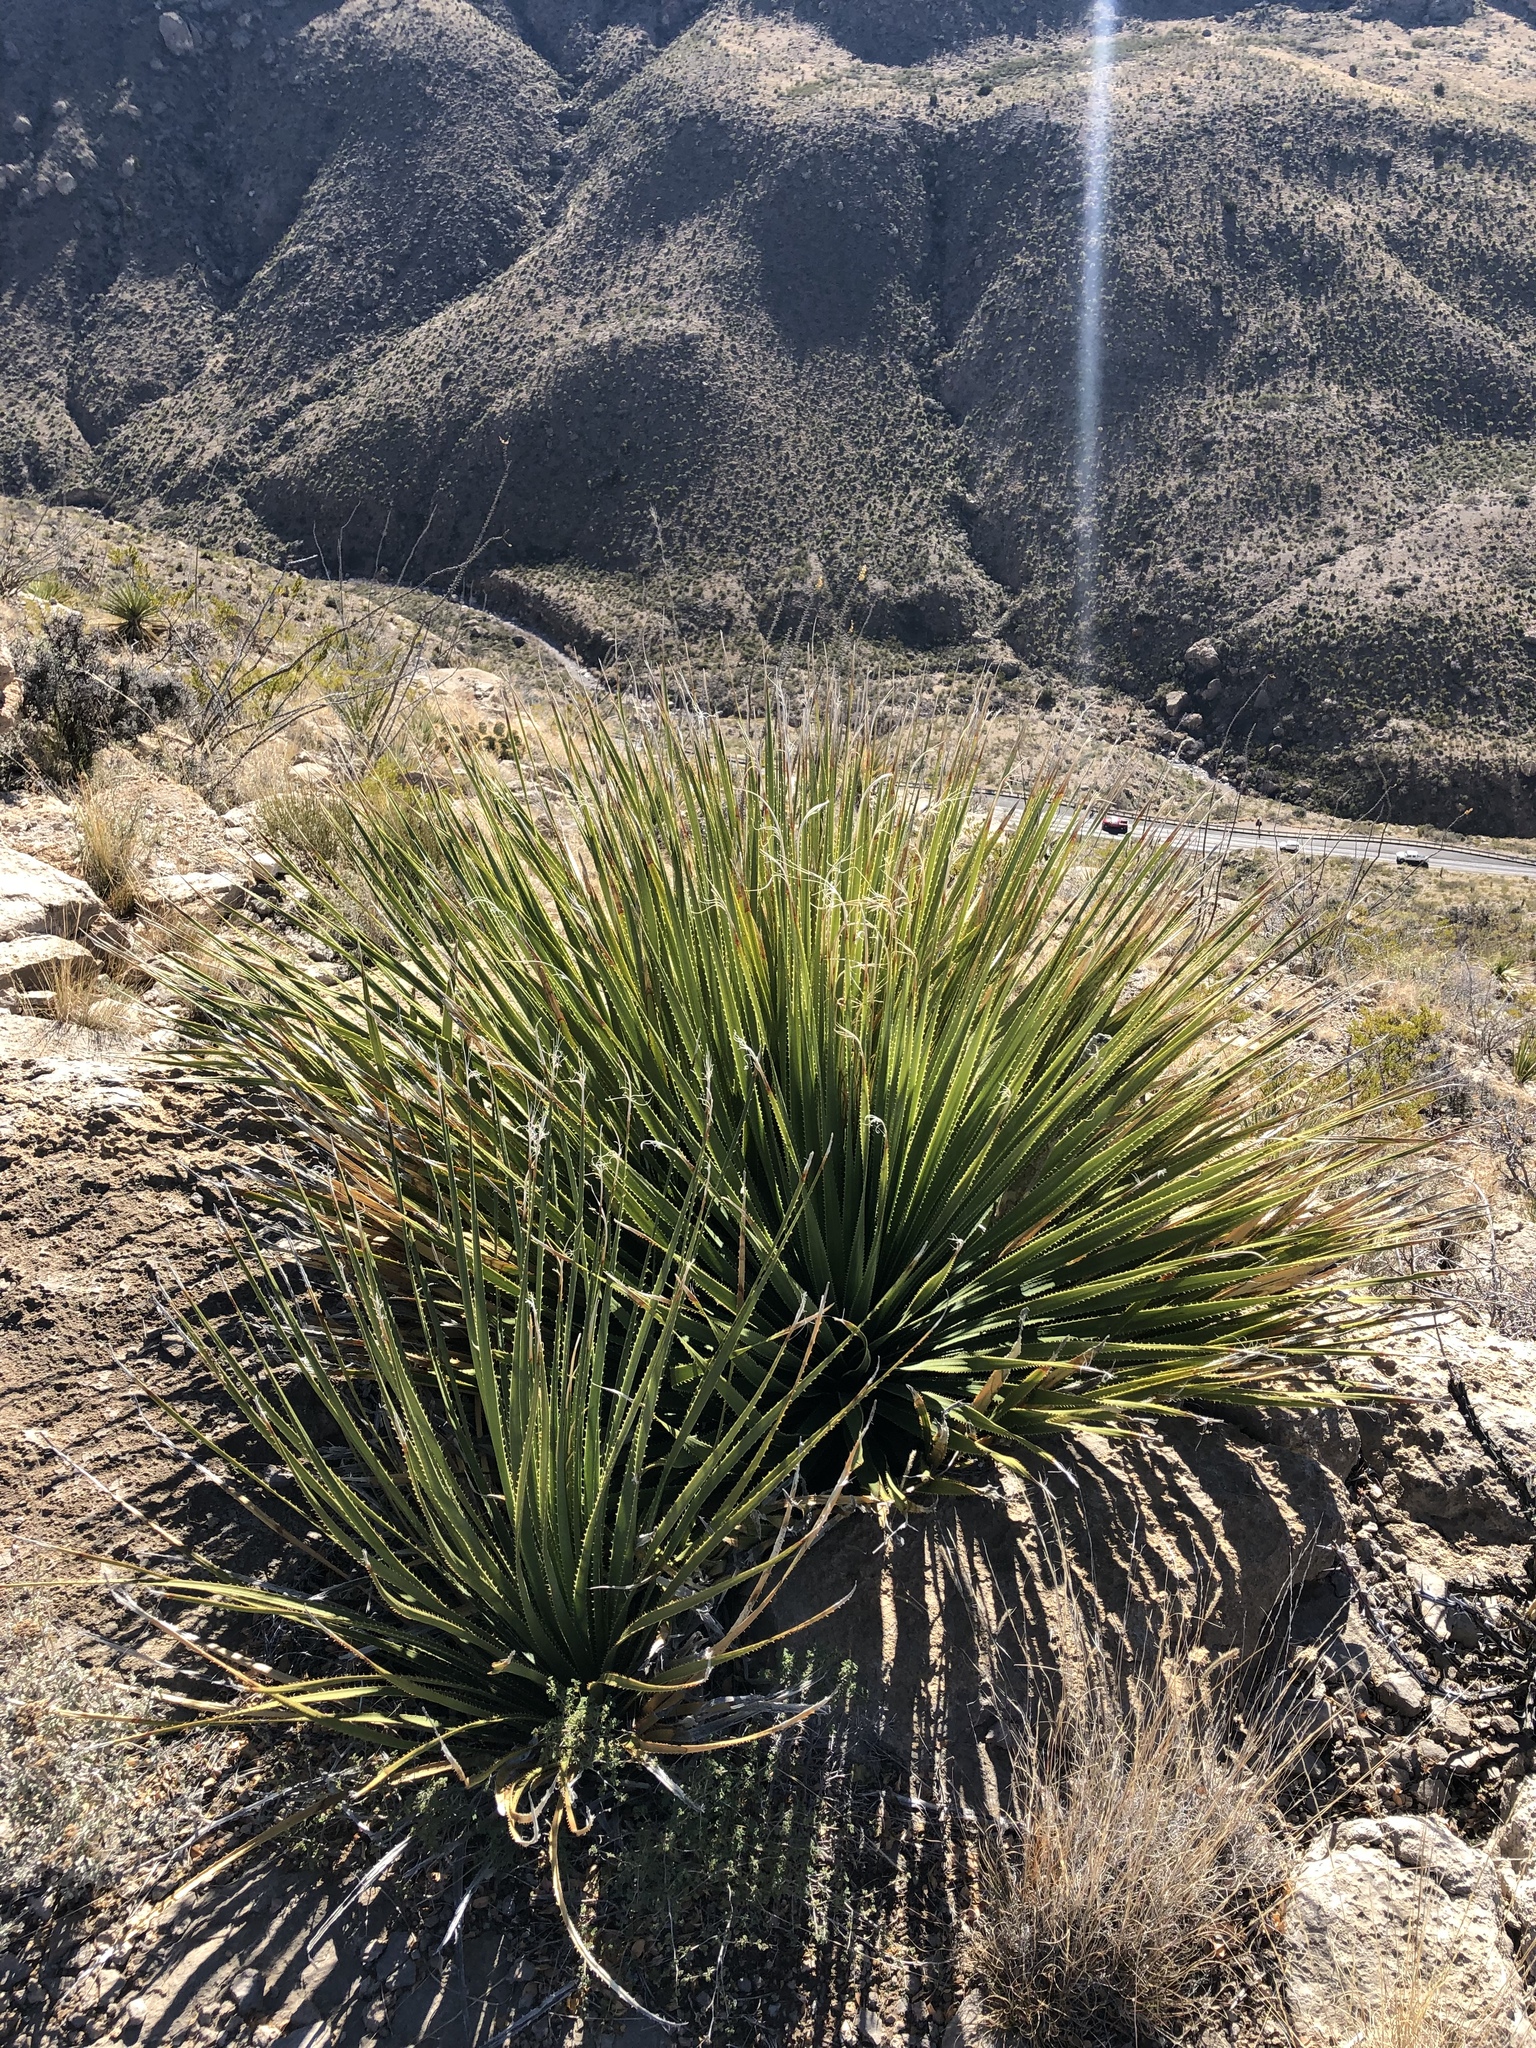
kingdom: Plantae
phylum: Tracheophyta
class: Liliopsida
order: Asparagales
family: Asparagaceae
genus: Dasylirion
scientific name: Dasylirion wheeleri
